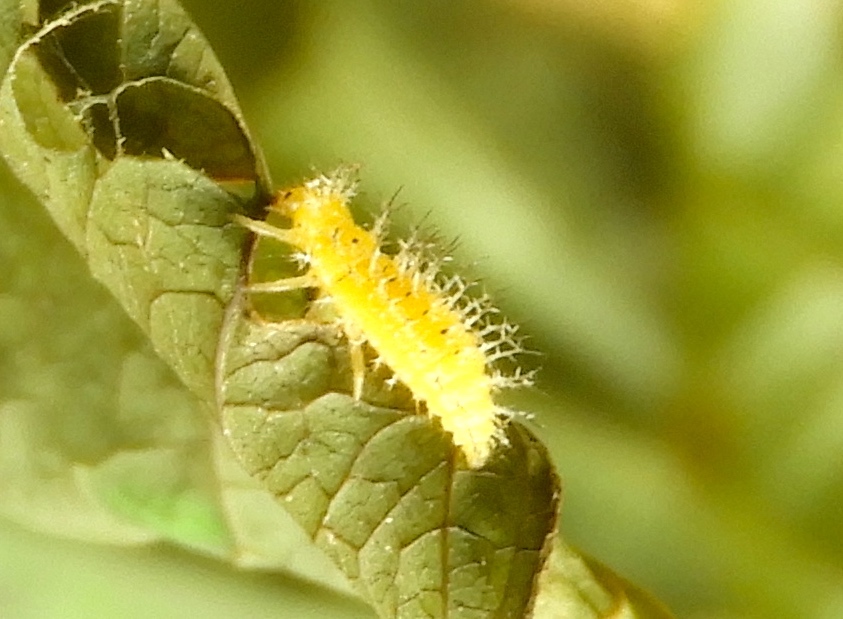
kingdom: Animalia
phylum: Arthropoda
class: Insecta
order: Coleoptera
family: Coccinellidae
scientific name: Coccinellidae
